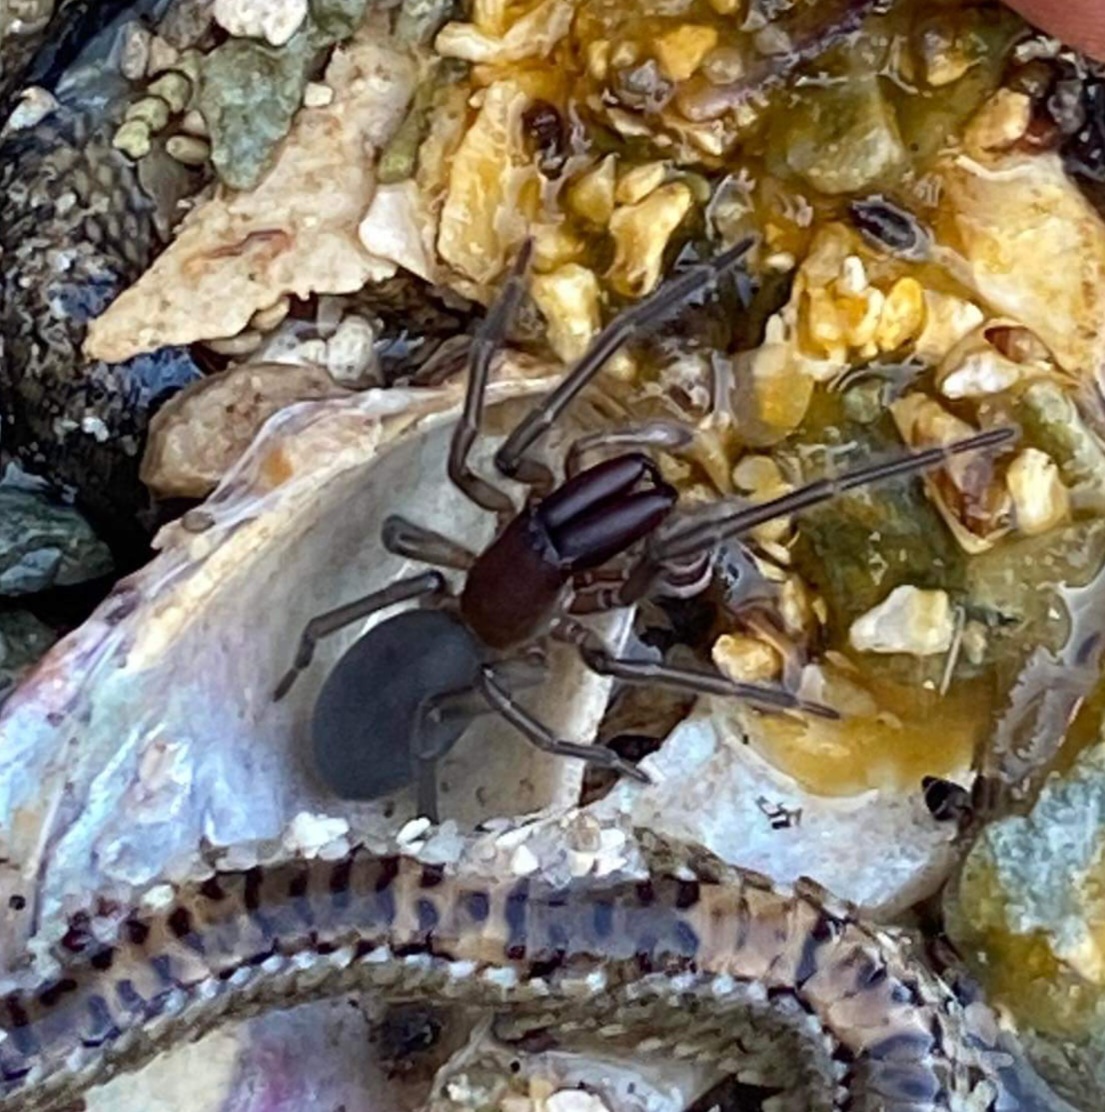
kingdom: Animalia
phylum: Arthropoda
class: Arachnida
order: Araneae
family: Desidae
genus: Desis
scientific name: Desis marina
